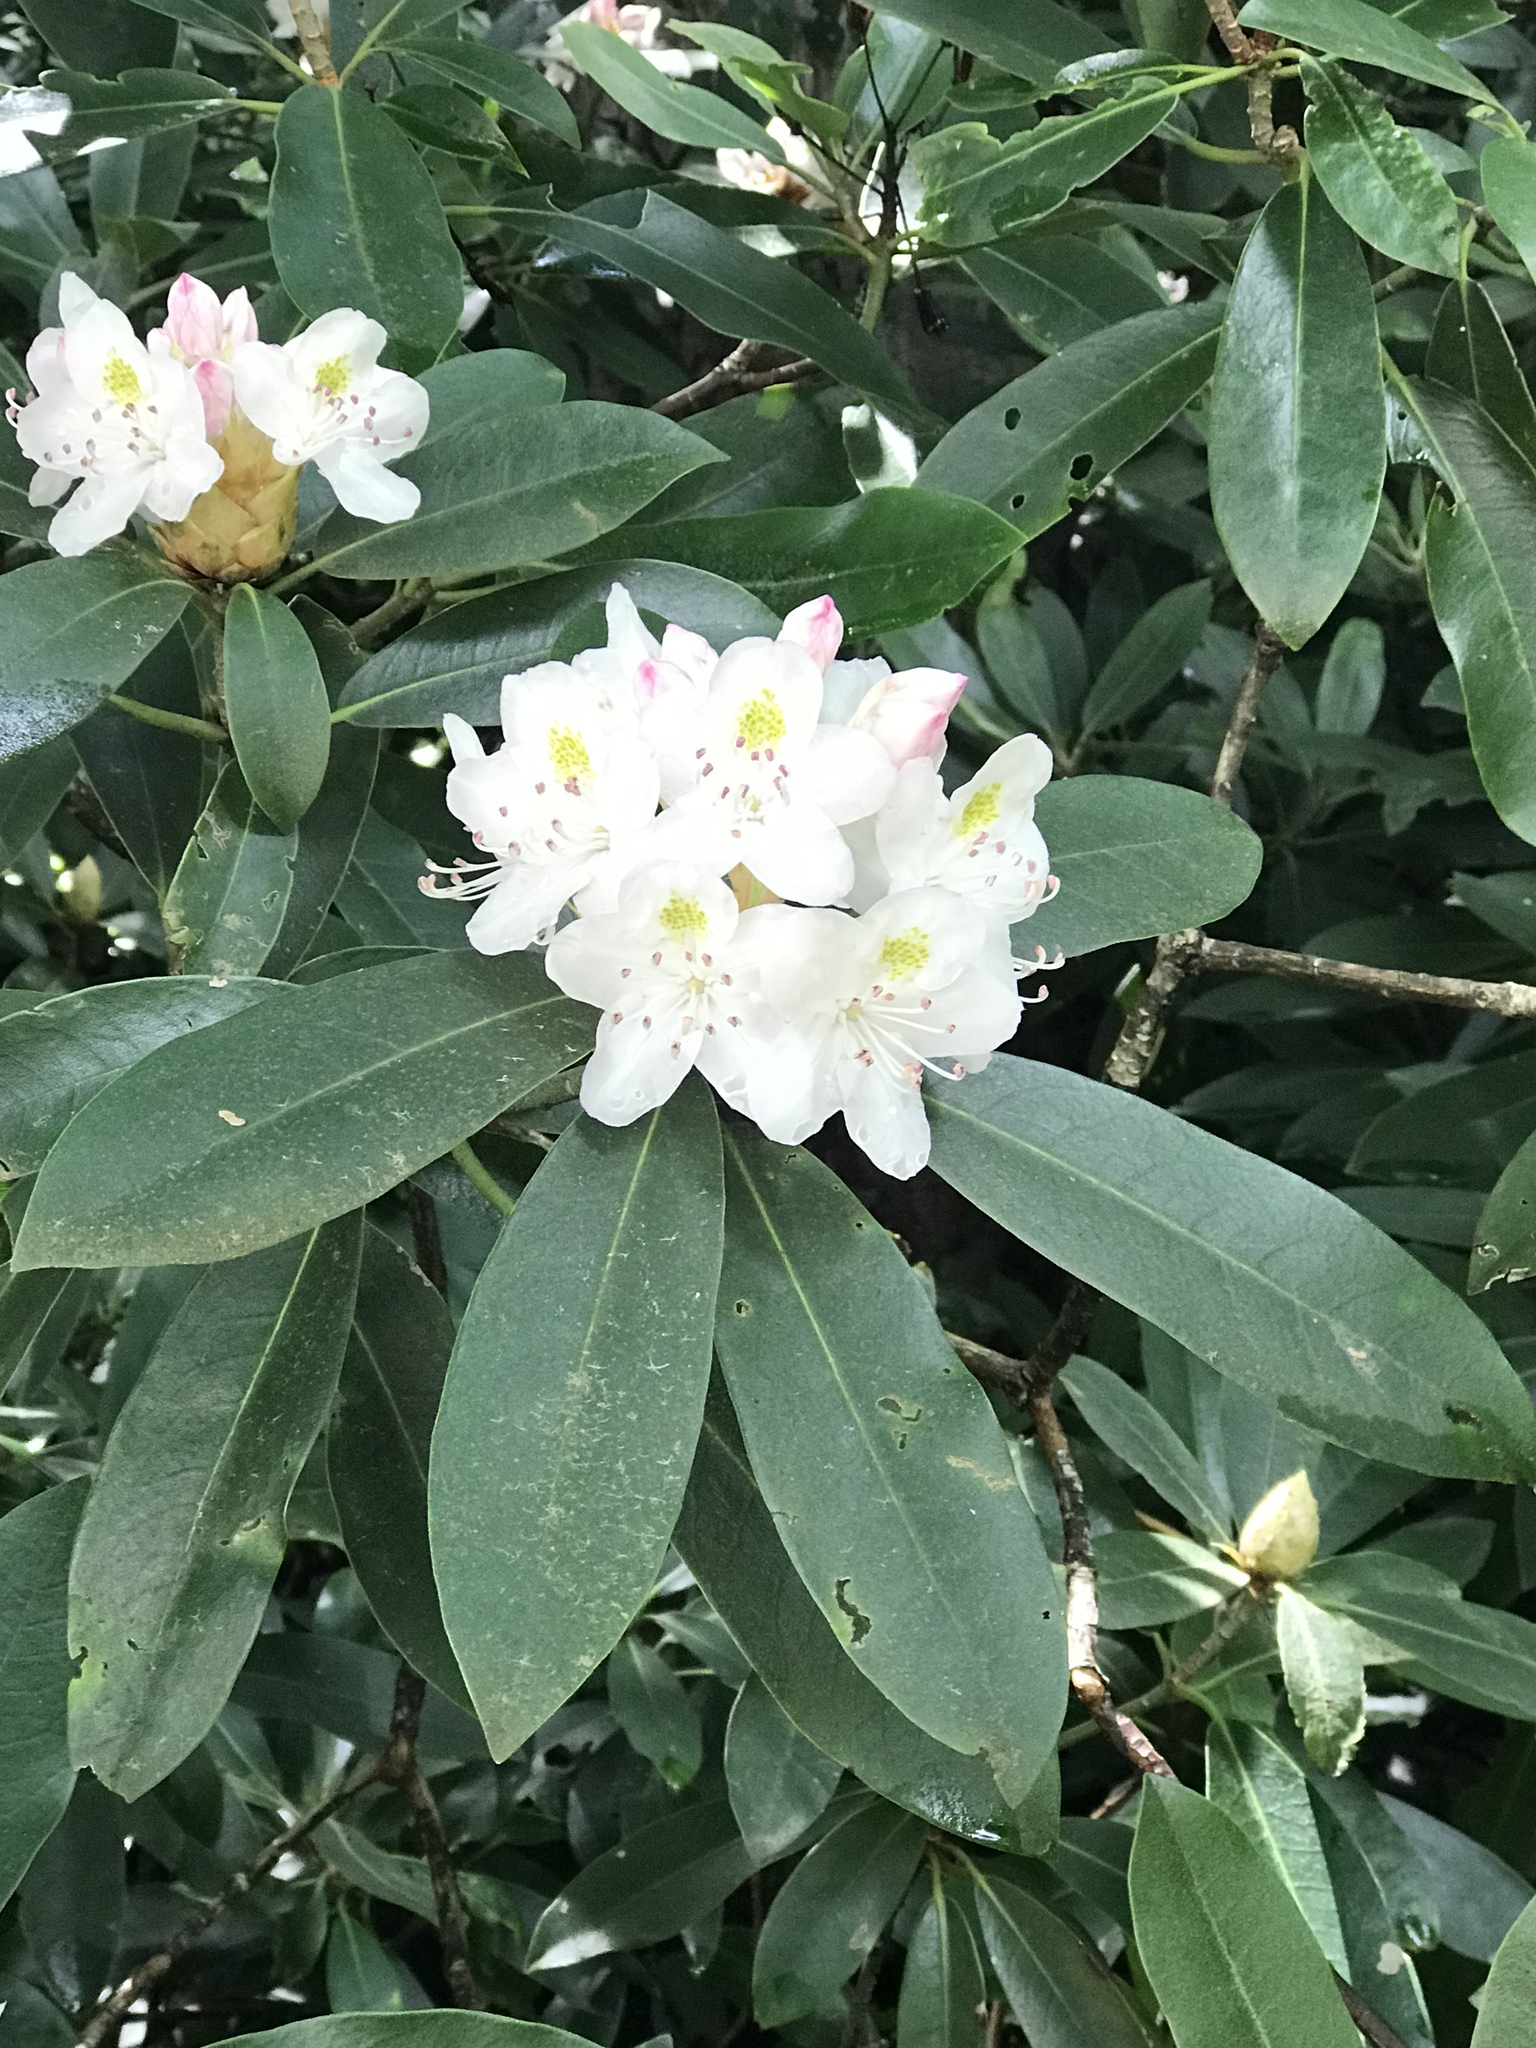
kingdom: Plantae
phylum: Tracheophyta
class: Magnoliopsida
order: Ericales
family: Ericaceae
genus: Rhododendron
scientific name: Rhododendron maximum
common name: Great rhododendron
